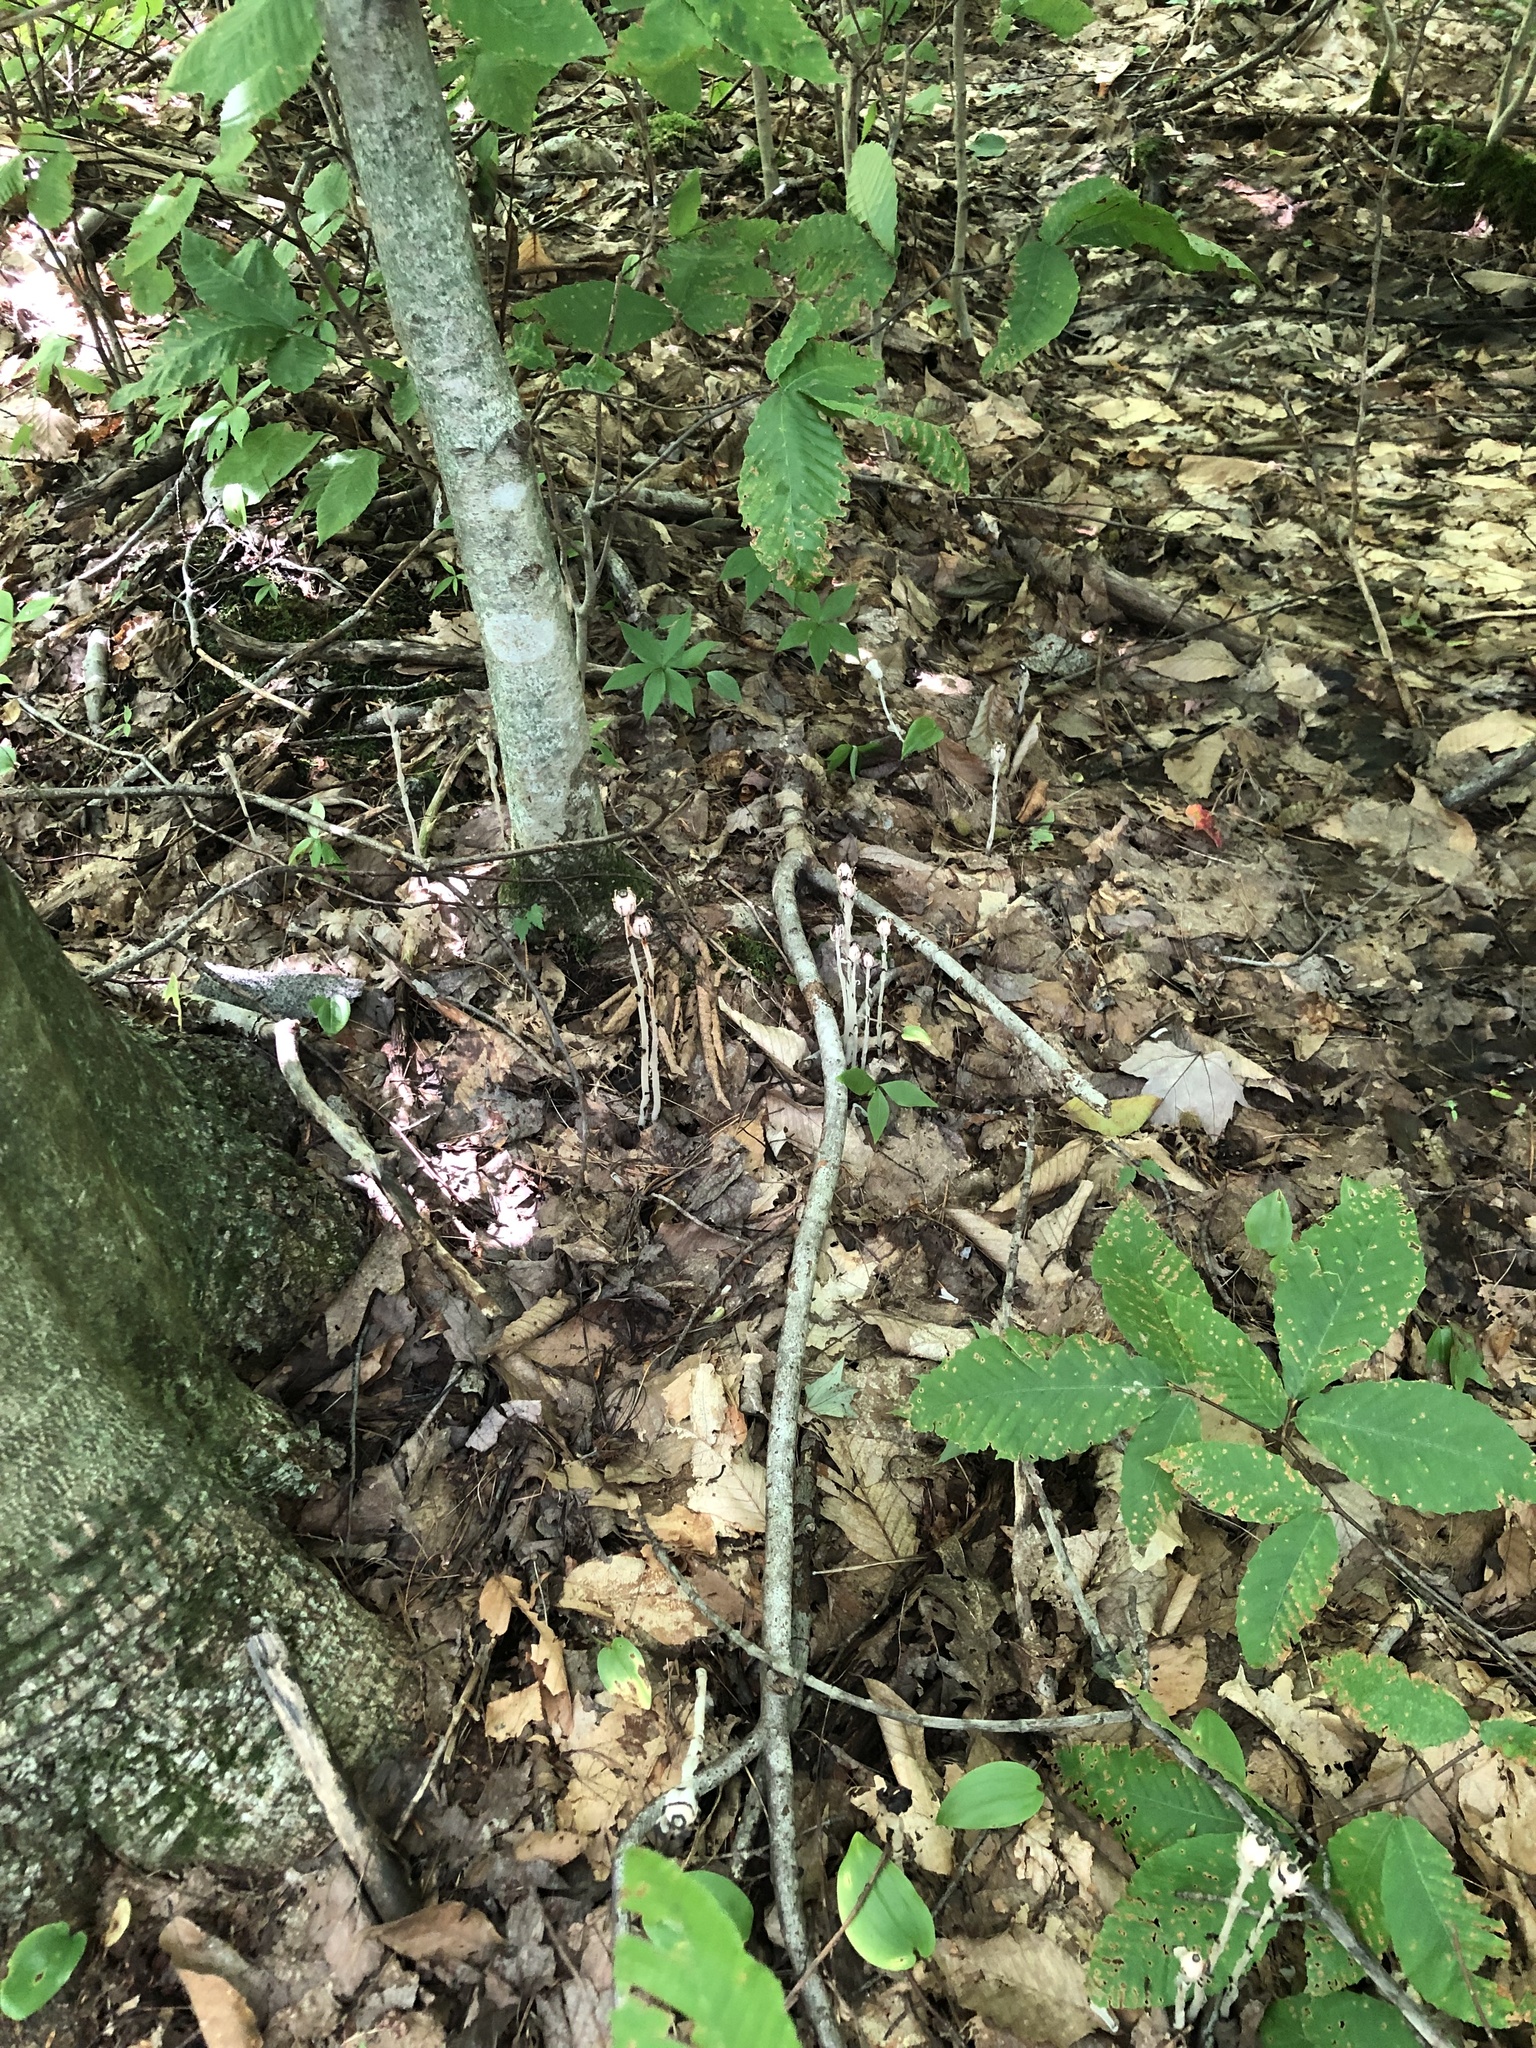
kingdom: Plantae
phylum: Tracheophyta
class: Magnoliopsida
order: Ericales
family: Ericaceae
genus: Monotropa
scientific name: Monotropa uniflora
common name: Convulsion root
